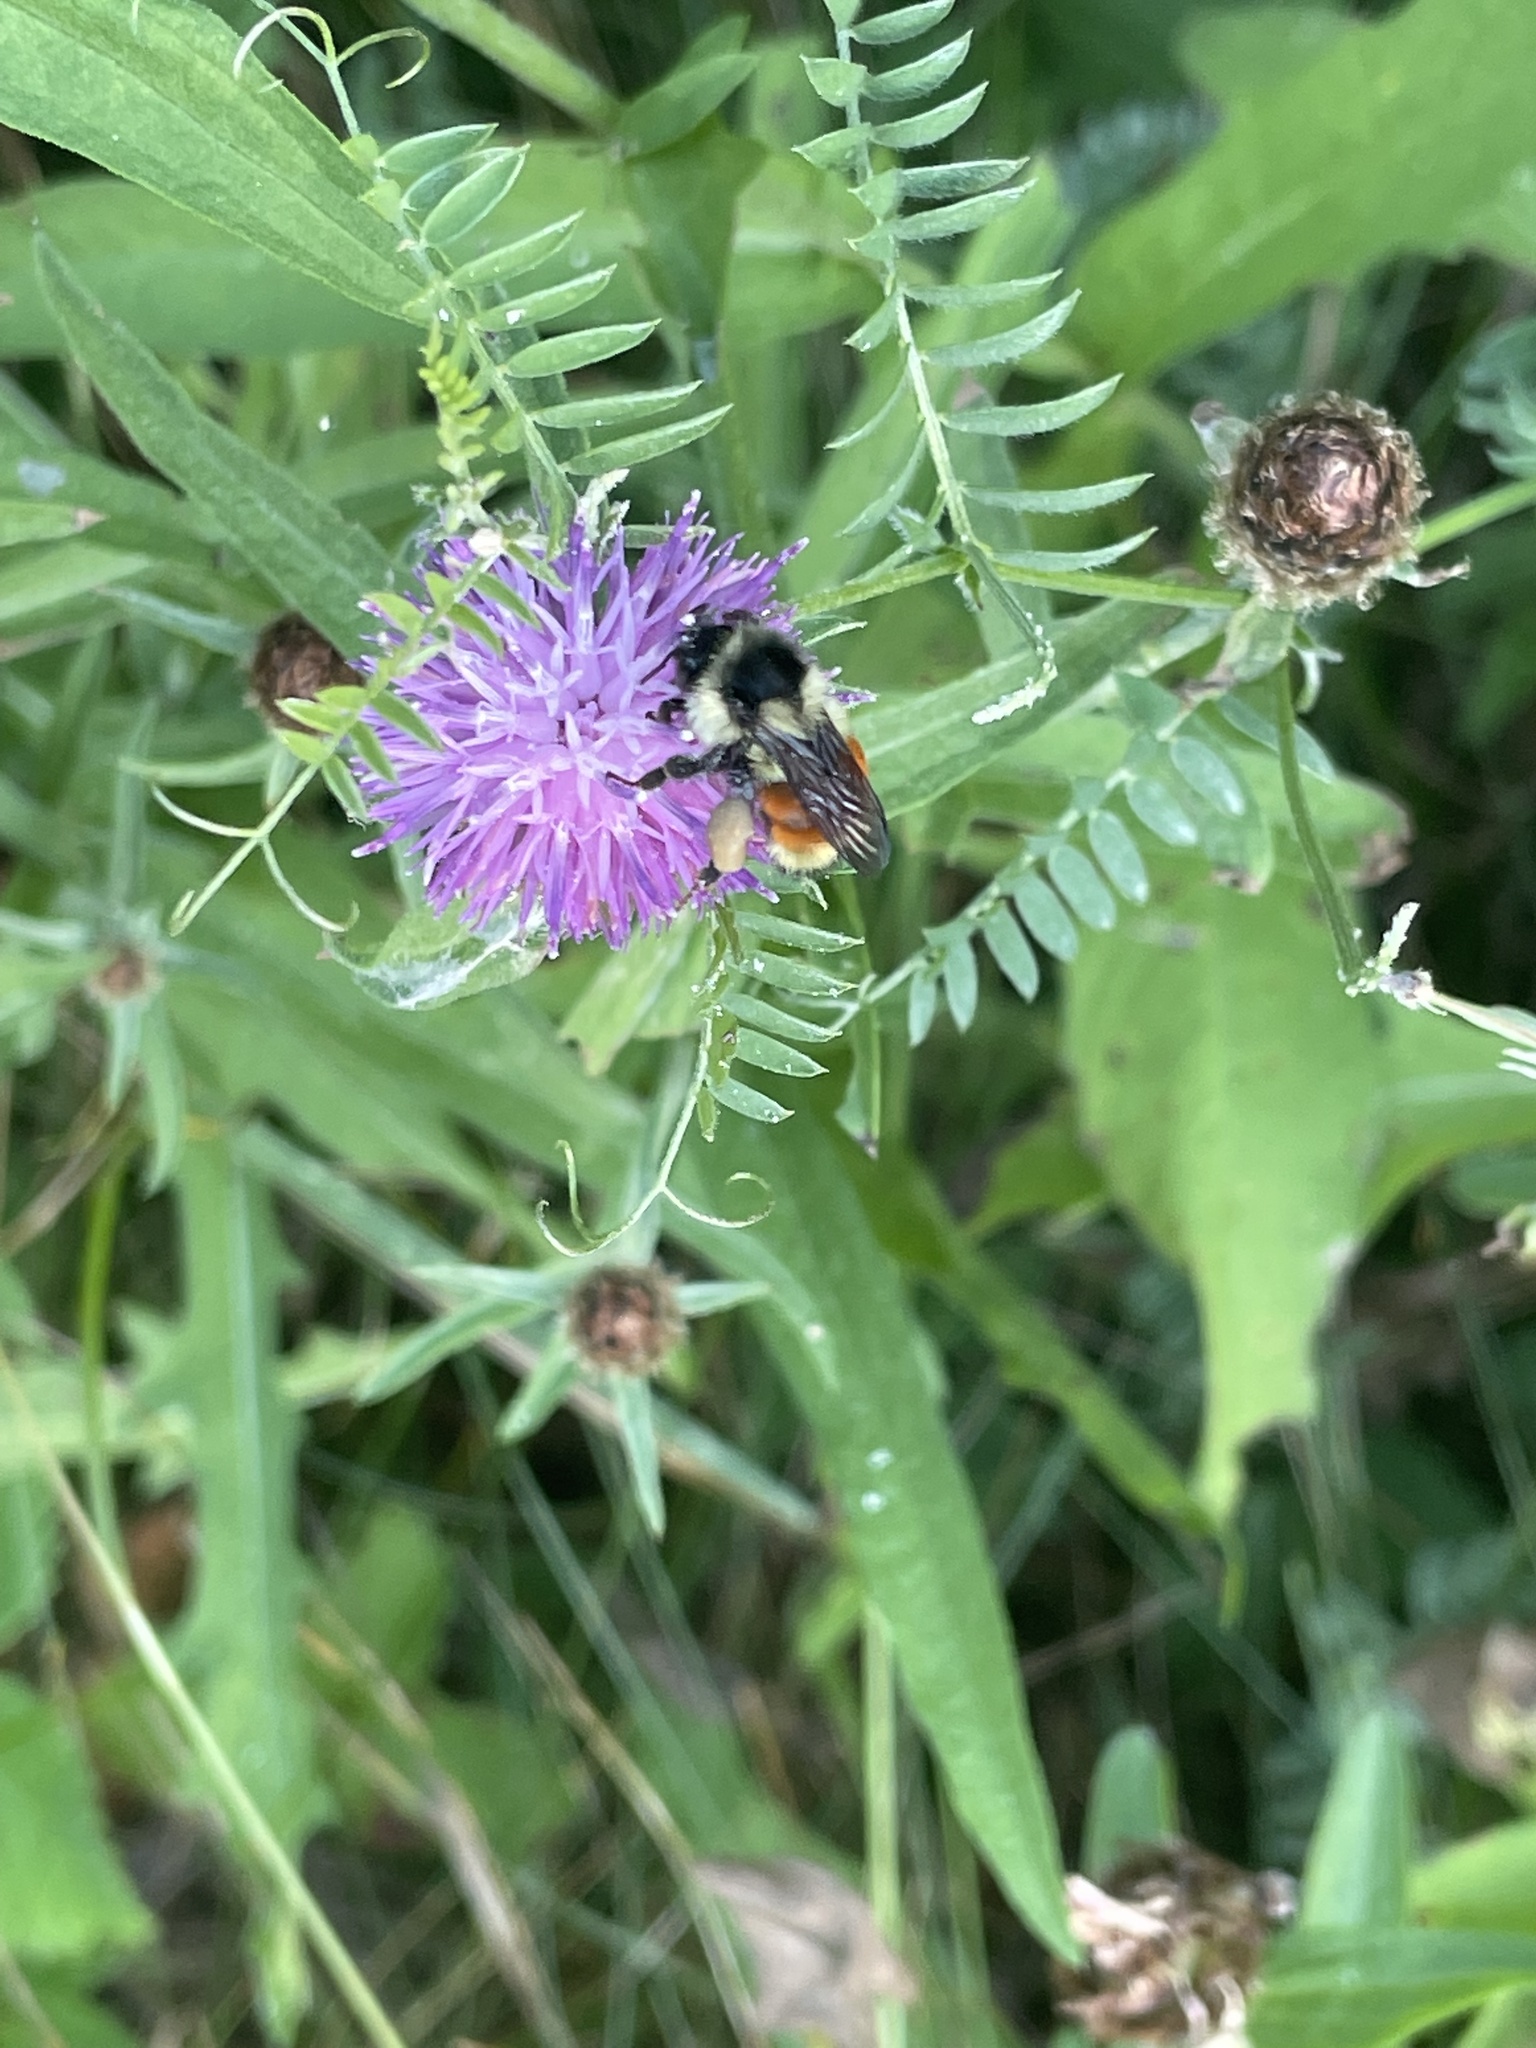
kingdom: Animalia
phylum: Arthropoda
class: Insecta
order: Hymenoptera
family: Apidae
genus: Bombus
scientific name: Bombus ternarius
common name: Tri-colored bumble bee
